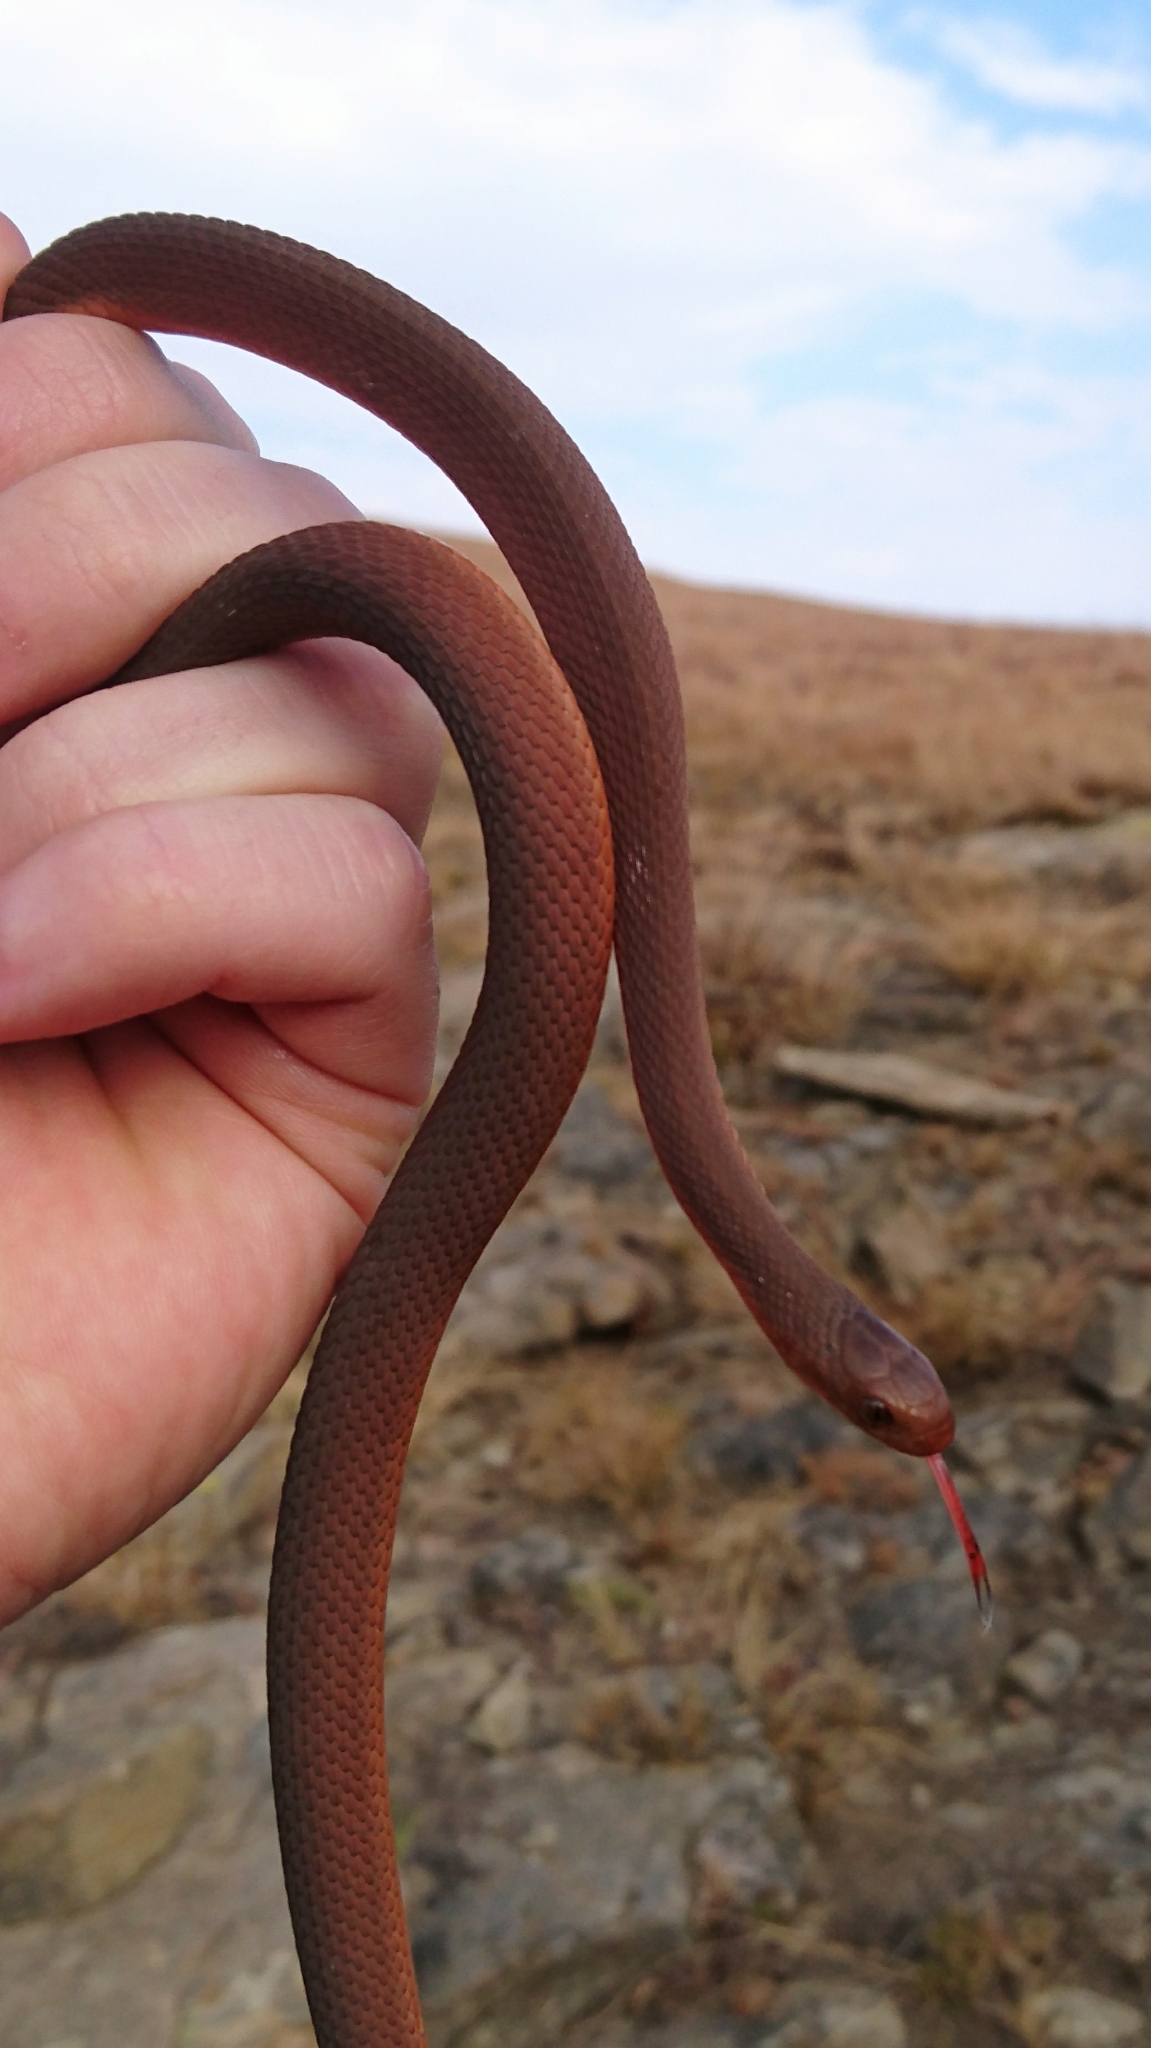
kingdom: Animalia
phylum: Chordata
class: Squamata
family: Colubridae
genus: Dasypeltis
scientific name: Dasypeltis inornata
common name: Southern brown egg eater
